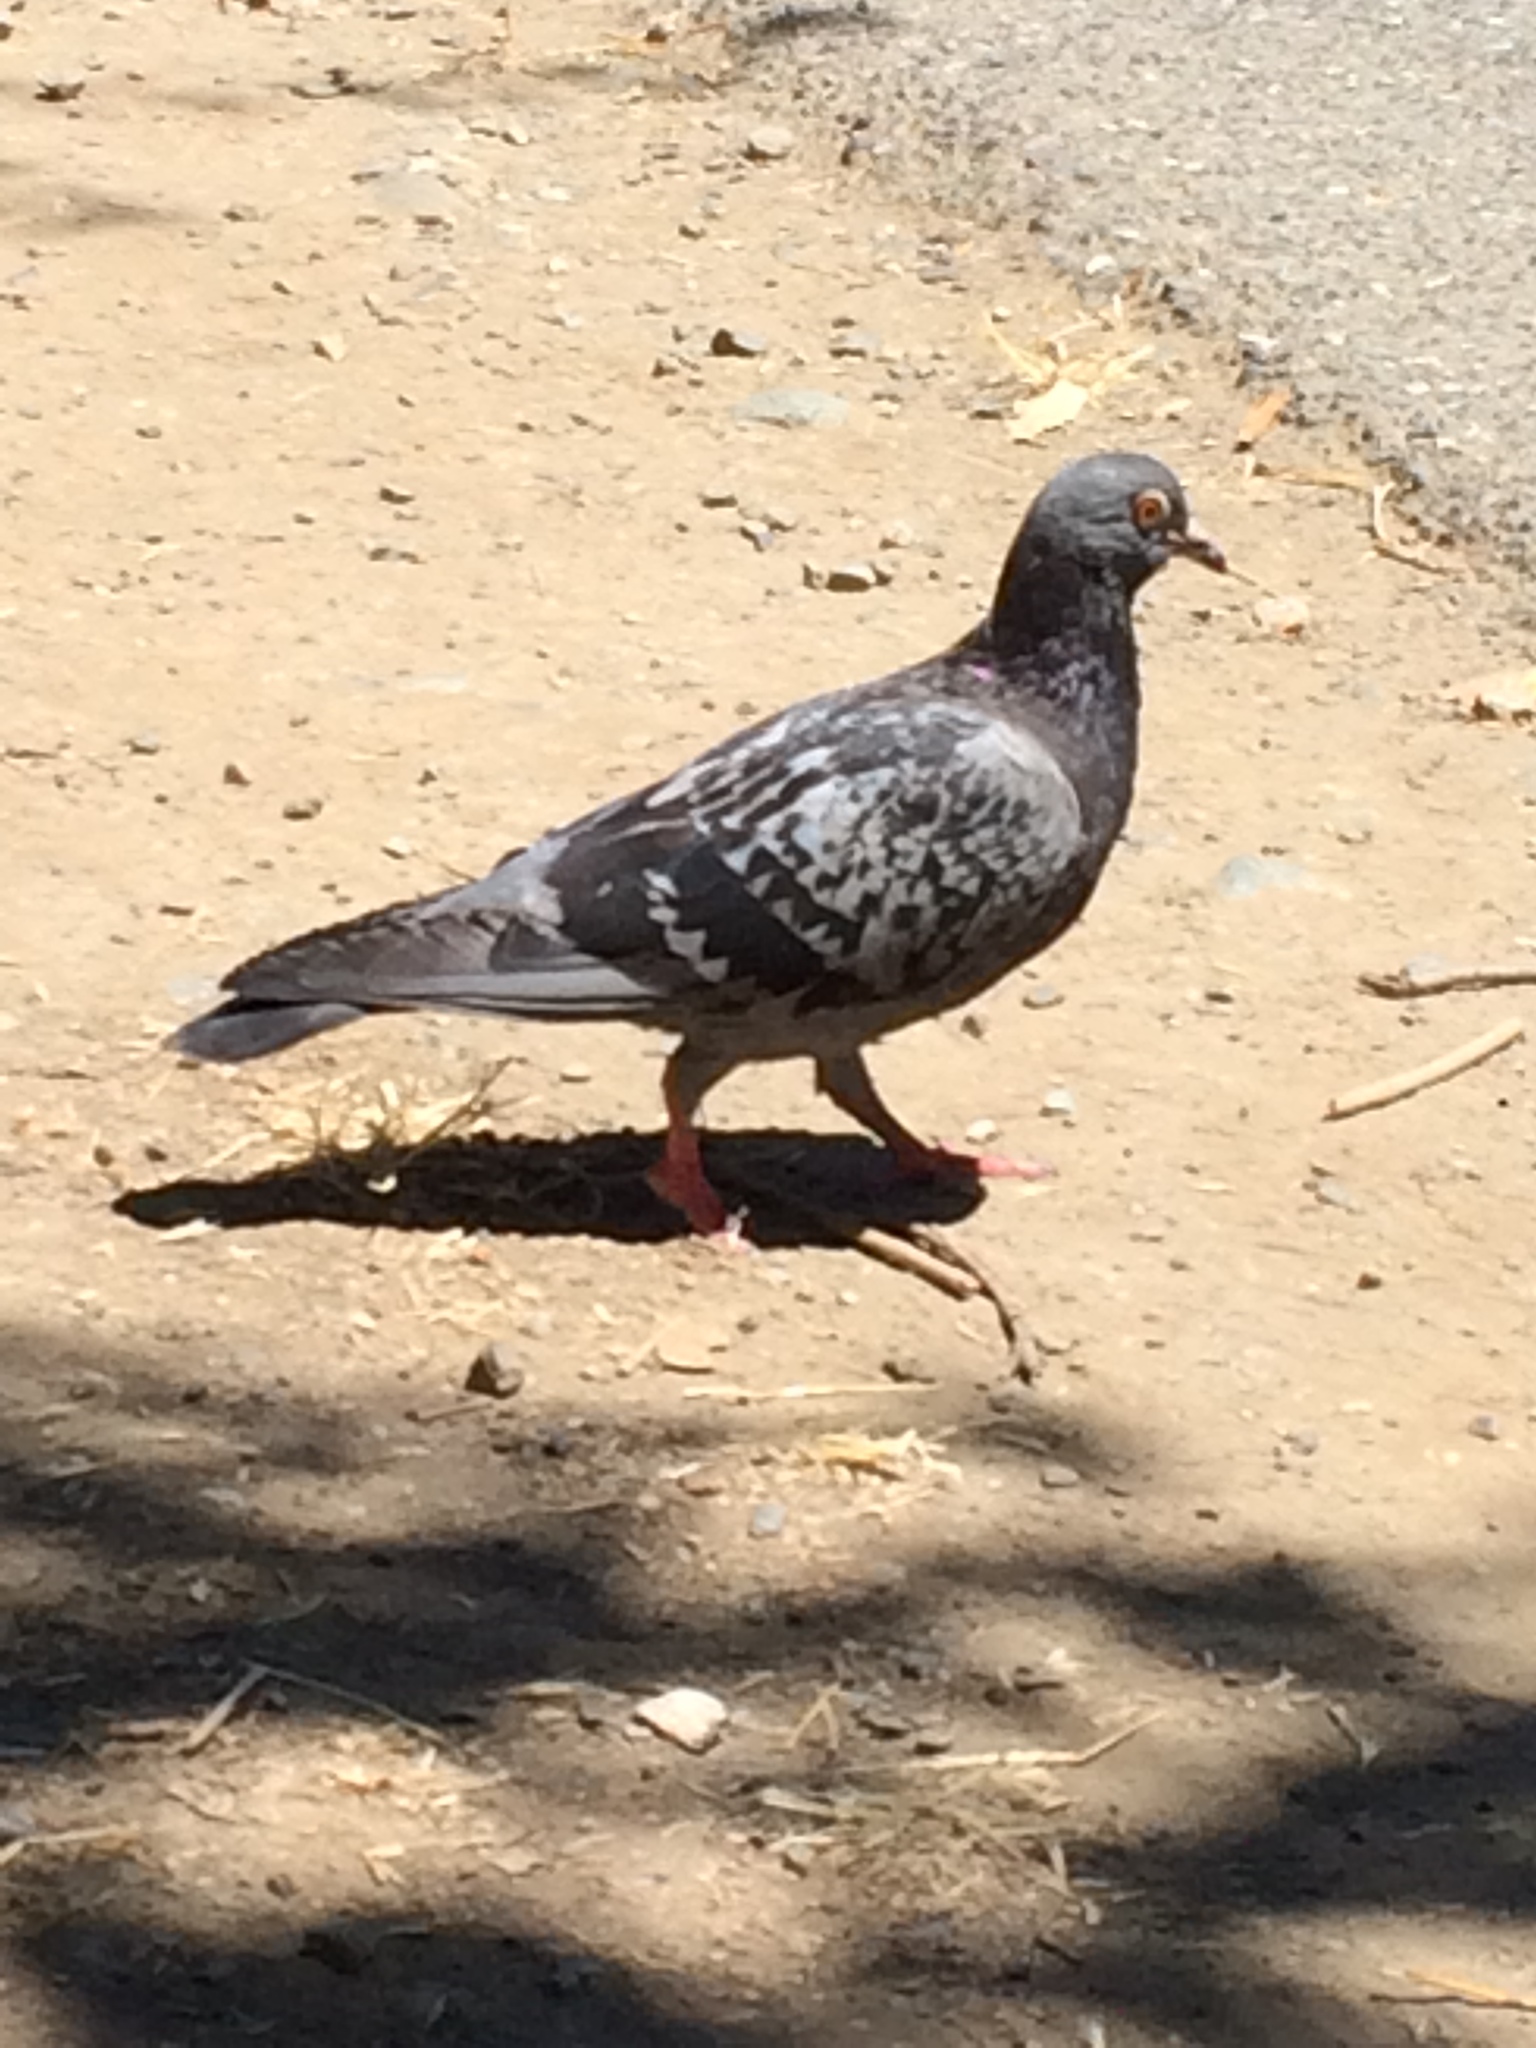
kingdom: Animalia
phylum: Chordata
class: Aves
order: Columbiformes
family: Columbidae
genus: Columba
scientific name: Columba livia
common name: Rock pigeon
